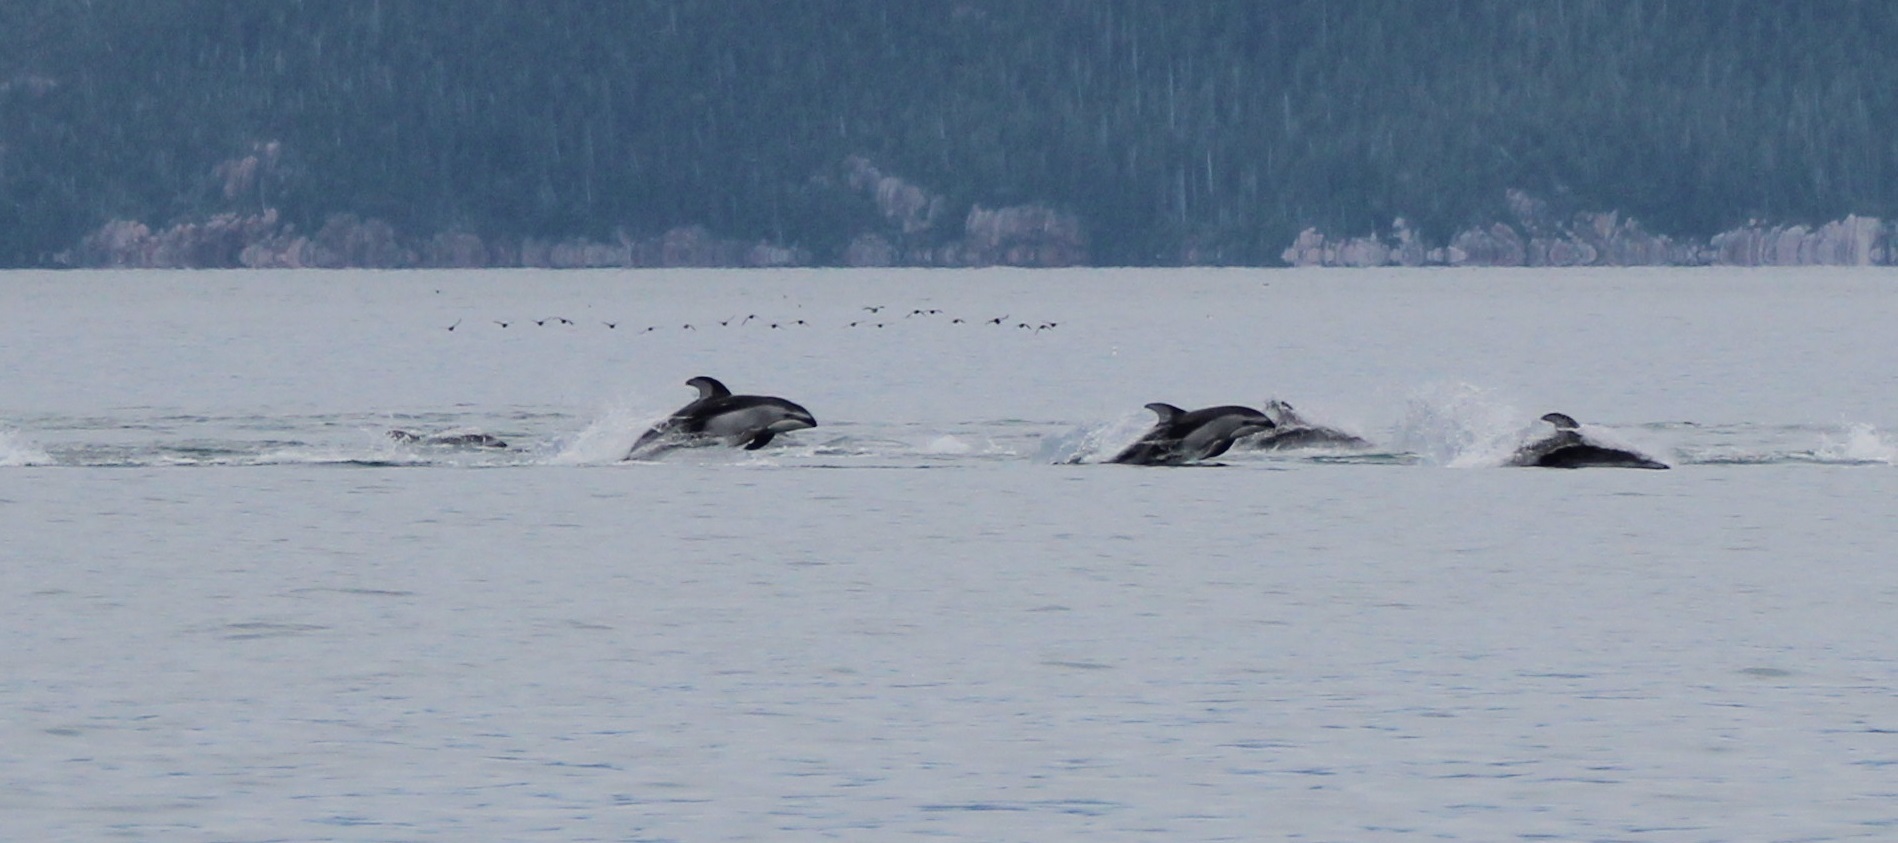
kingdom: Animalia
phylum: Chordata
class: Mammalia
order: Cetacea
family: Delphinidae
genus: Lagenorhynchus
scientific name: Lagenorhynchus obliquidens
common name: Pacific white-sided dolphin
